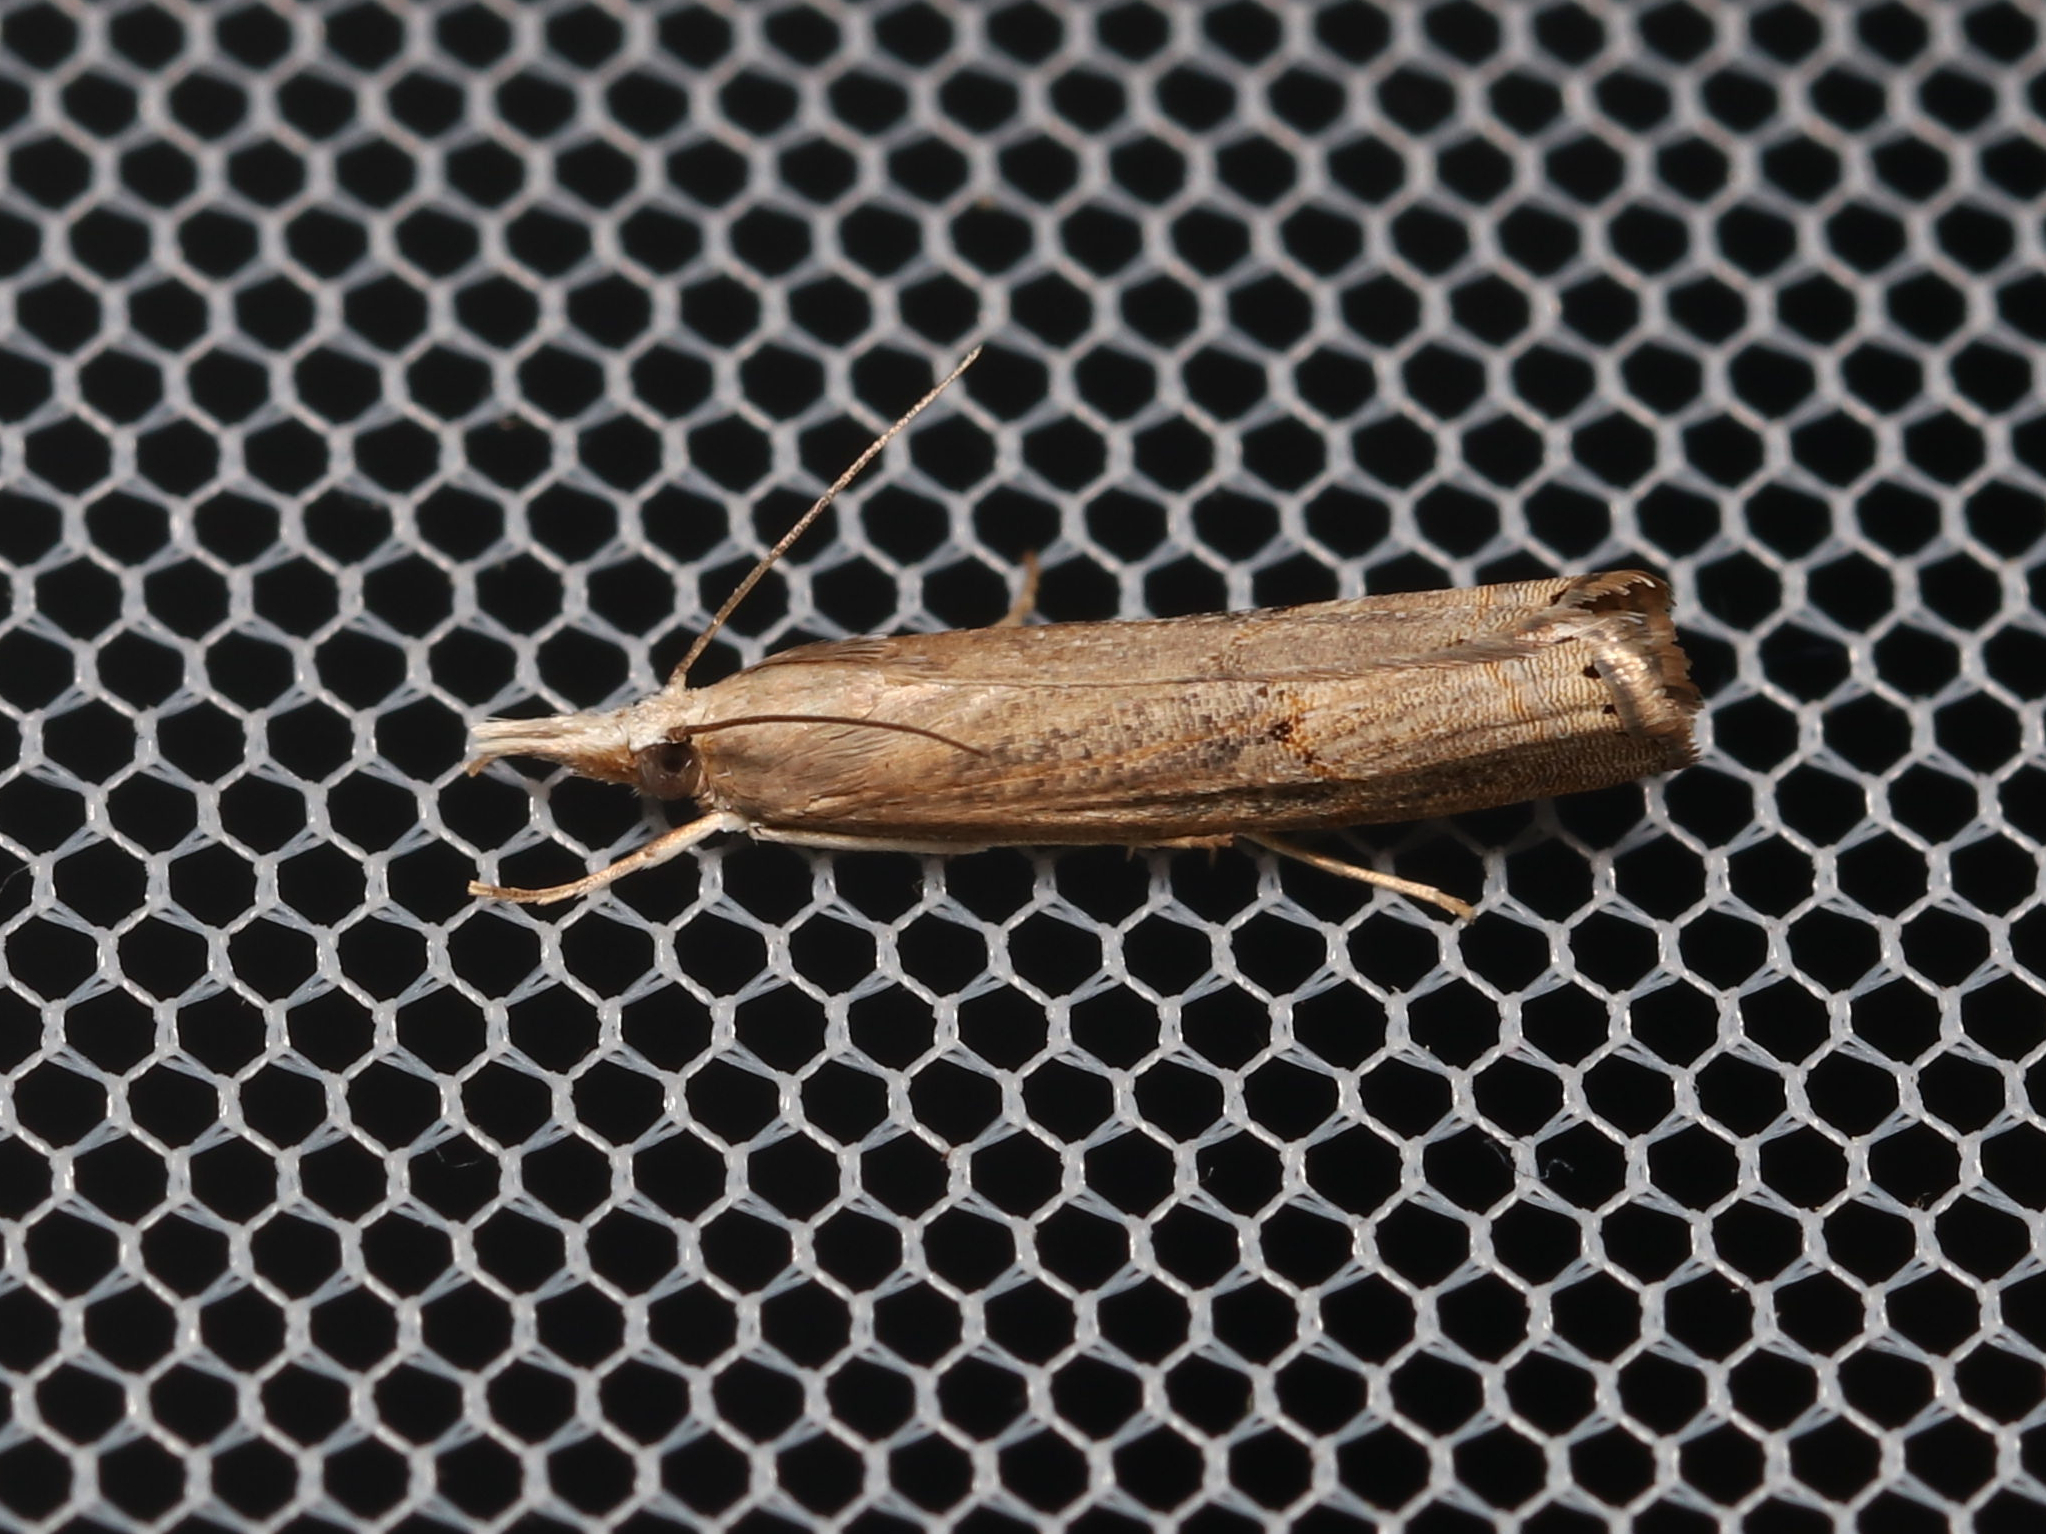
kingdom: Animalia
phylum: Arthropoda
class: Insecta
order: Lepidoptera
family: Crambidae
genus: Parapediasia
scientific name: Parapediasia teterellus
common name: Bluegrass webworm moth
